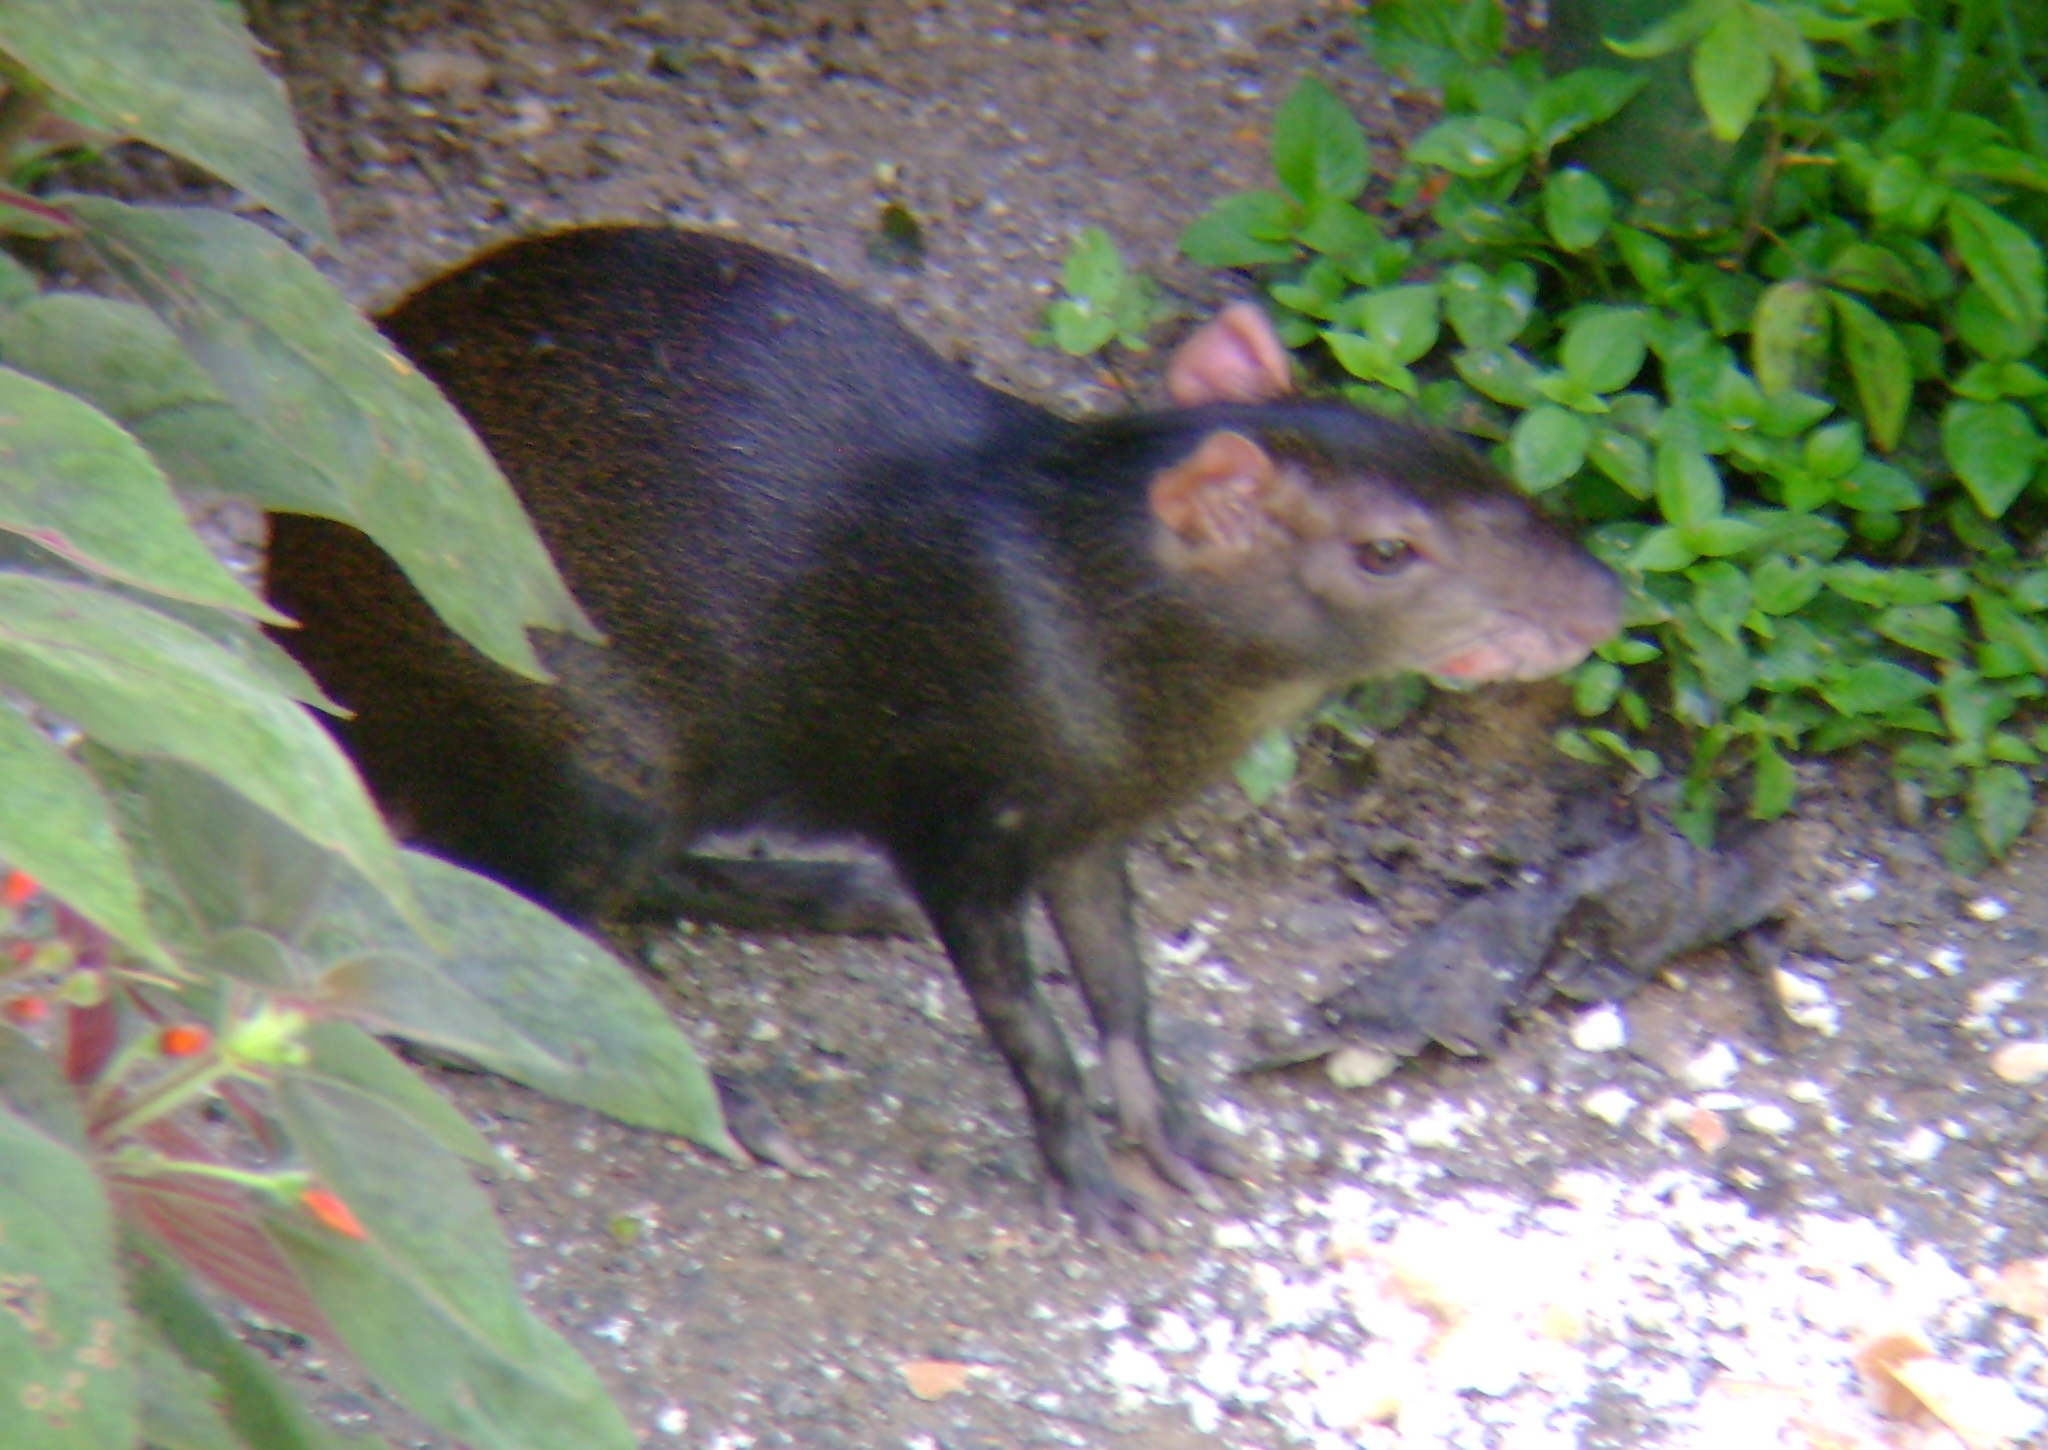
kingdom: Animalia
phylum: Chordata
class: Mammalia
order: Rodentia
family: Dasyproctidae
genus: Dasyprocta
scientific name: Dasyprocta leporina
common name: Red-rumped agouti
